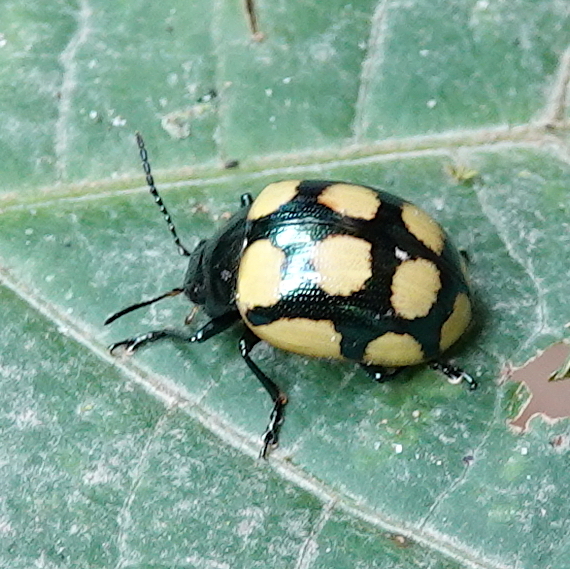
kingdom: Animalia
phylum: Arthropoda
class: Insecta
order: Coleoptera
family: Chrysomelidae
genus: Platyphora
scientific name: Platyphora
